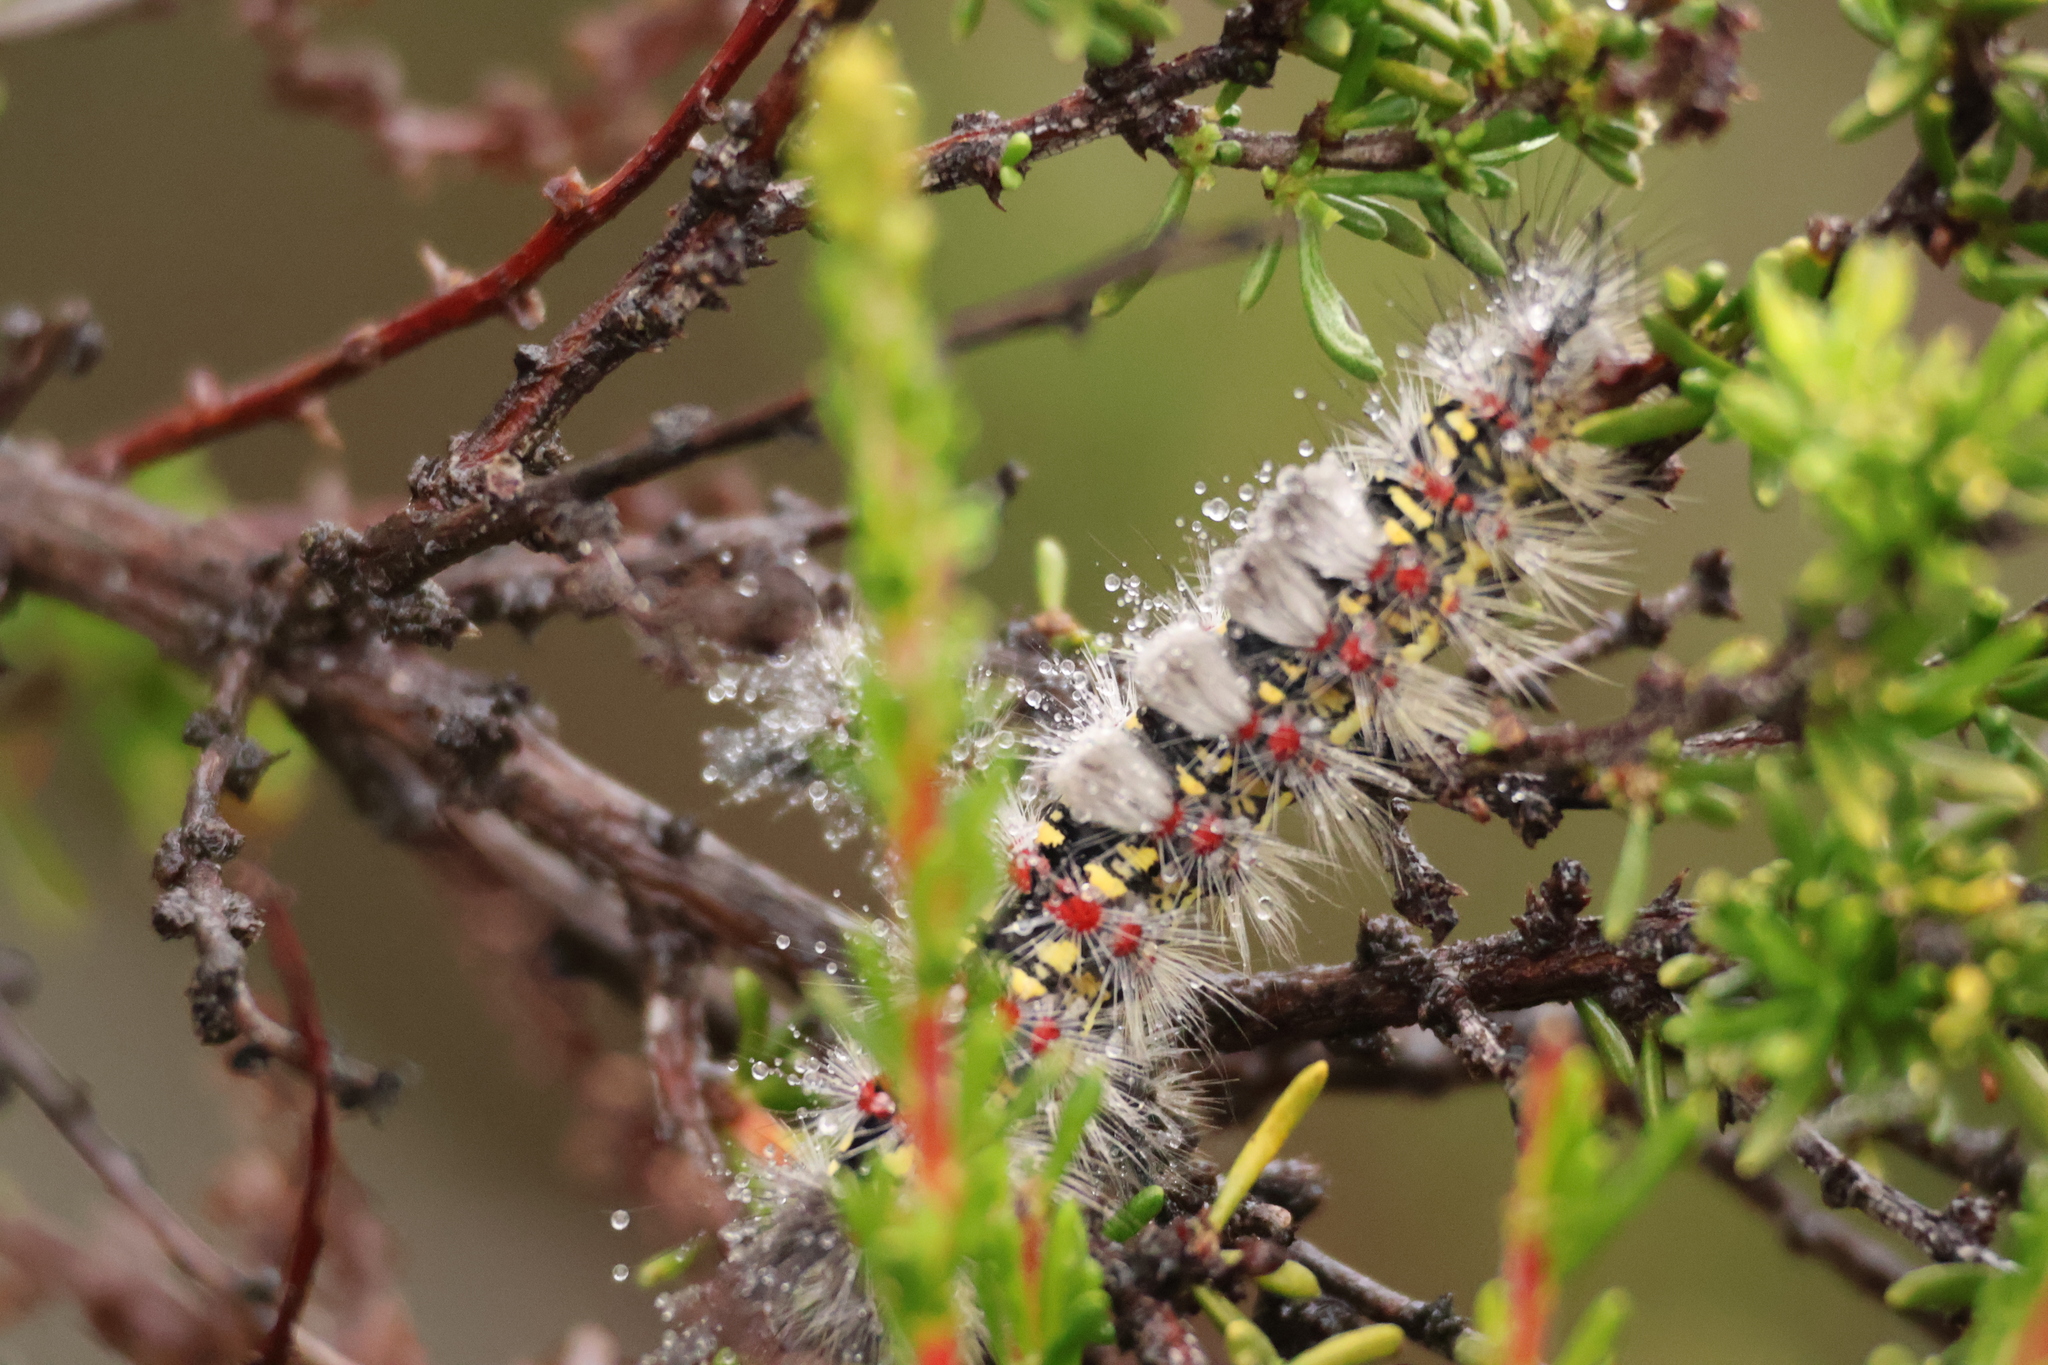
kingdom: Animalia
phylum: Arthropoda
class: Insecta
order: Lepidoptera
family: Erebidae
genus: Orgyia
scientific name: Orgyia vetusta
